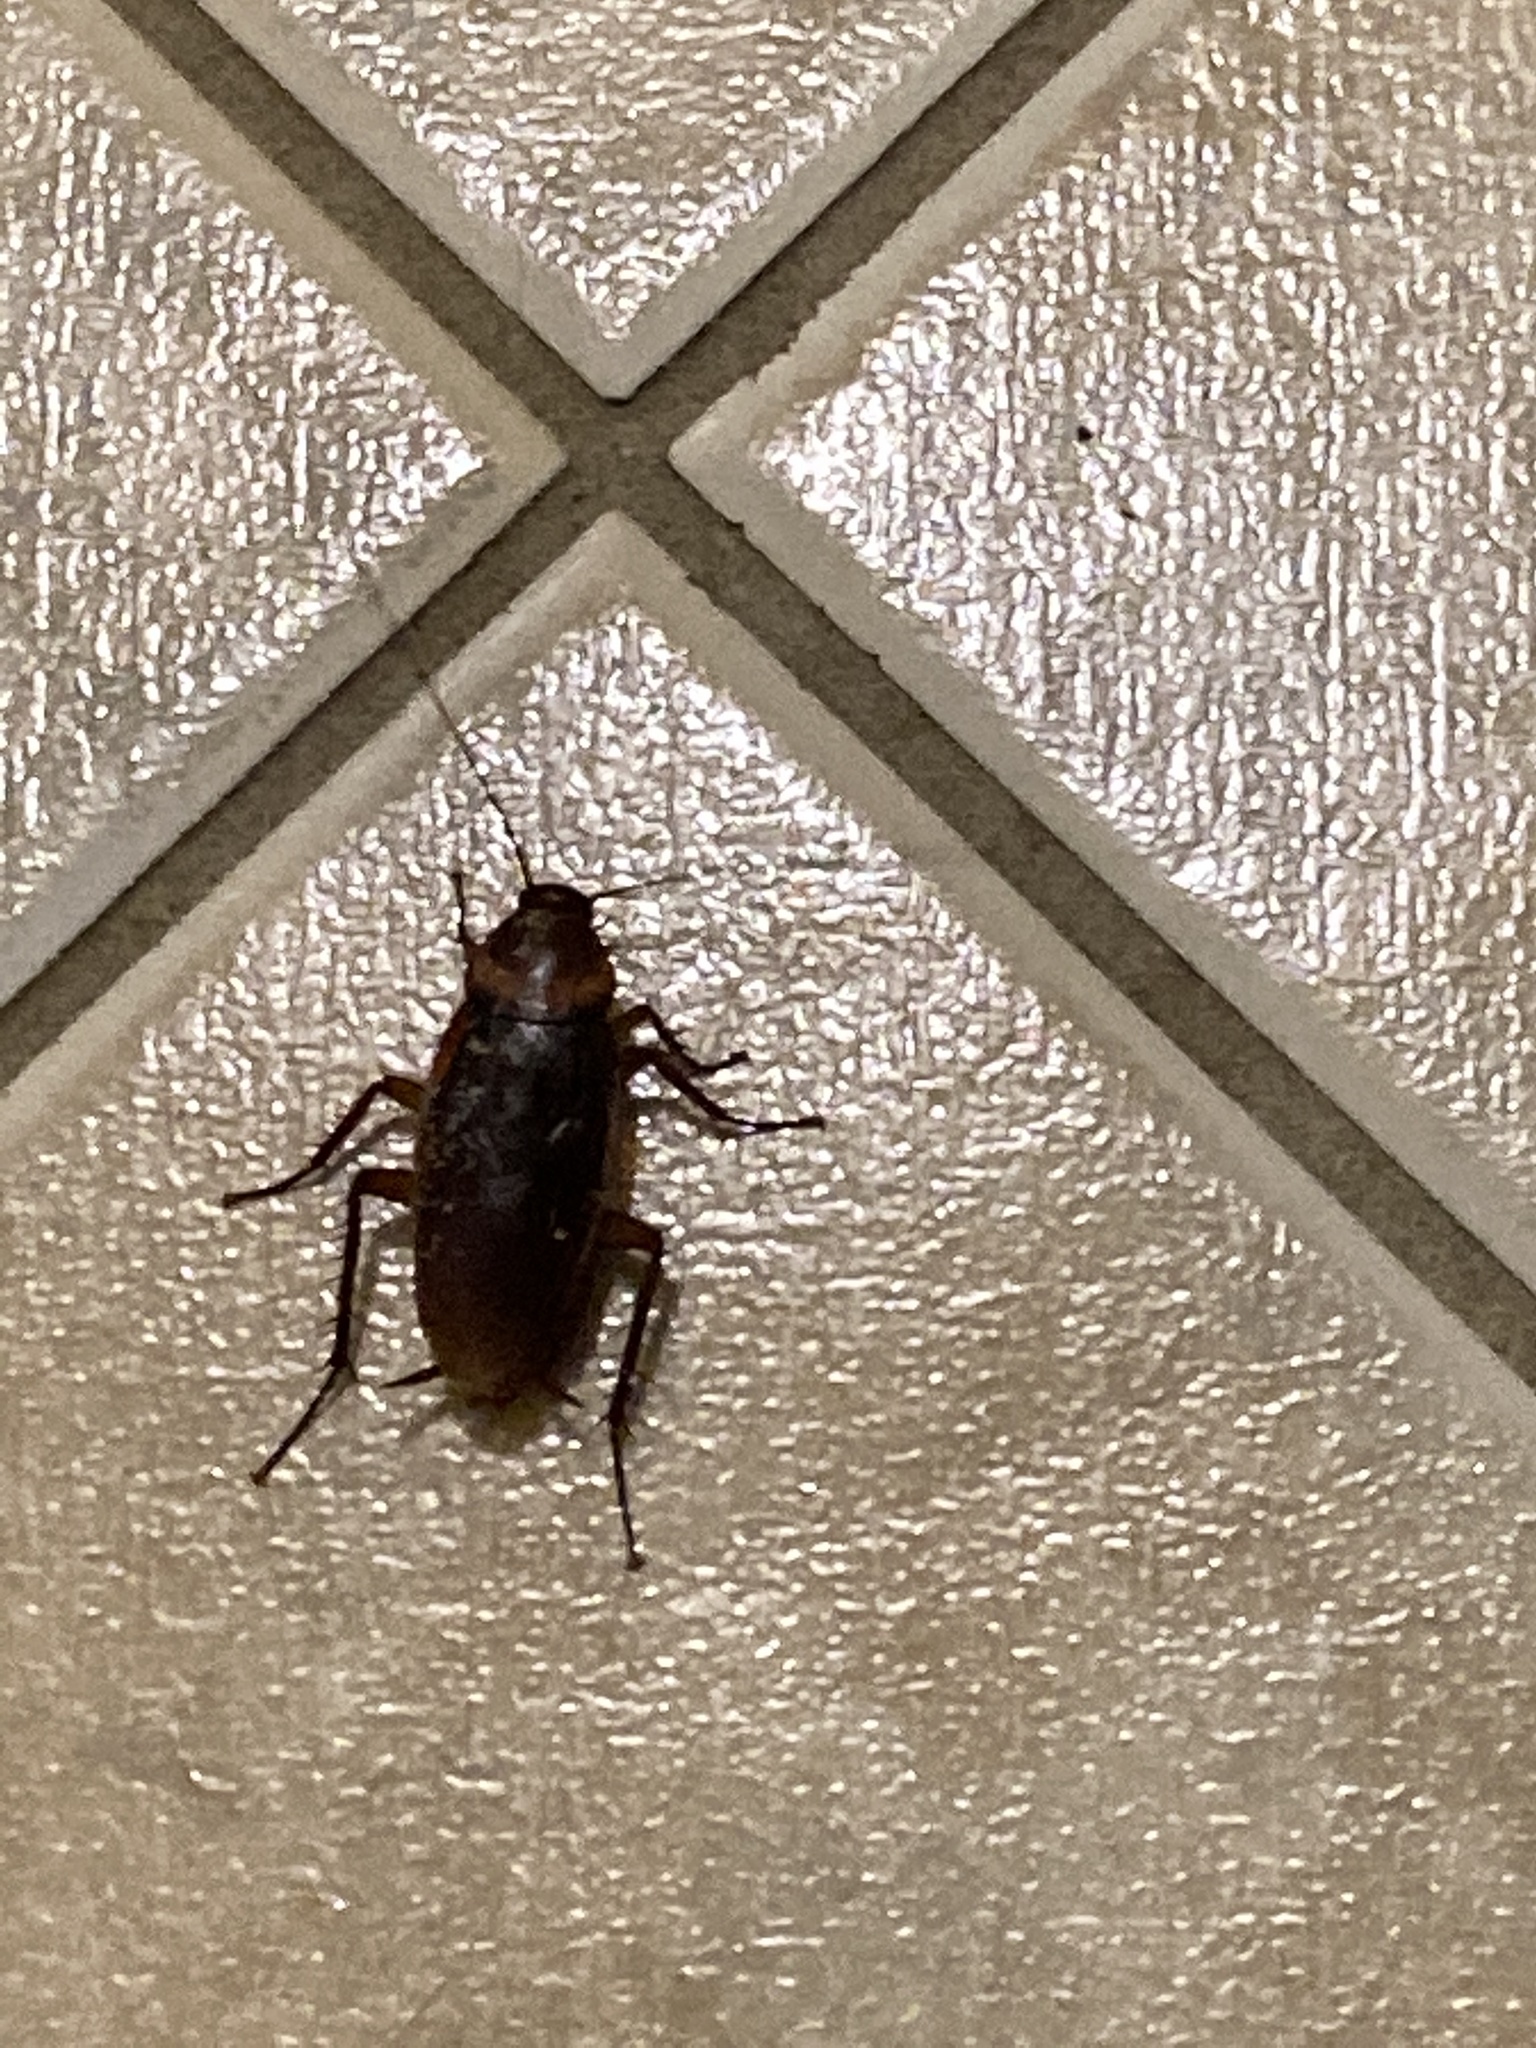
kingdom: Animalia
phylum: Arthropoda
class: Insecta
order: Blattodea
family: Blattidae
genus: Periplaneta
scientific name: Periplaneta americana
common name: American cockroach
